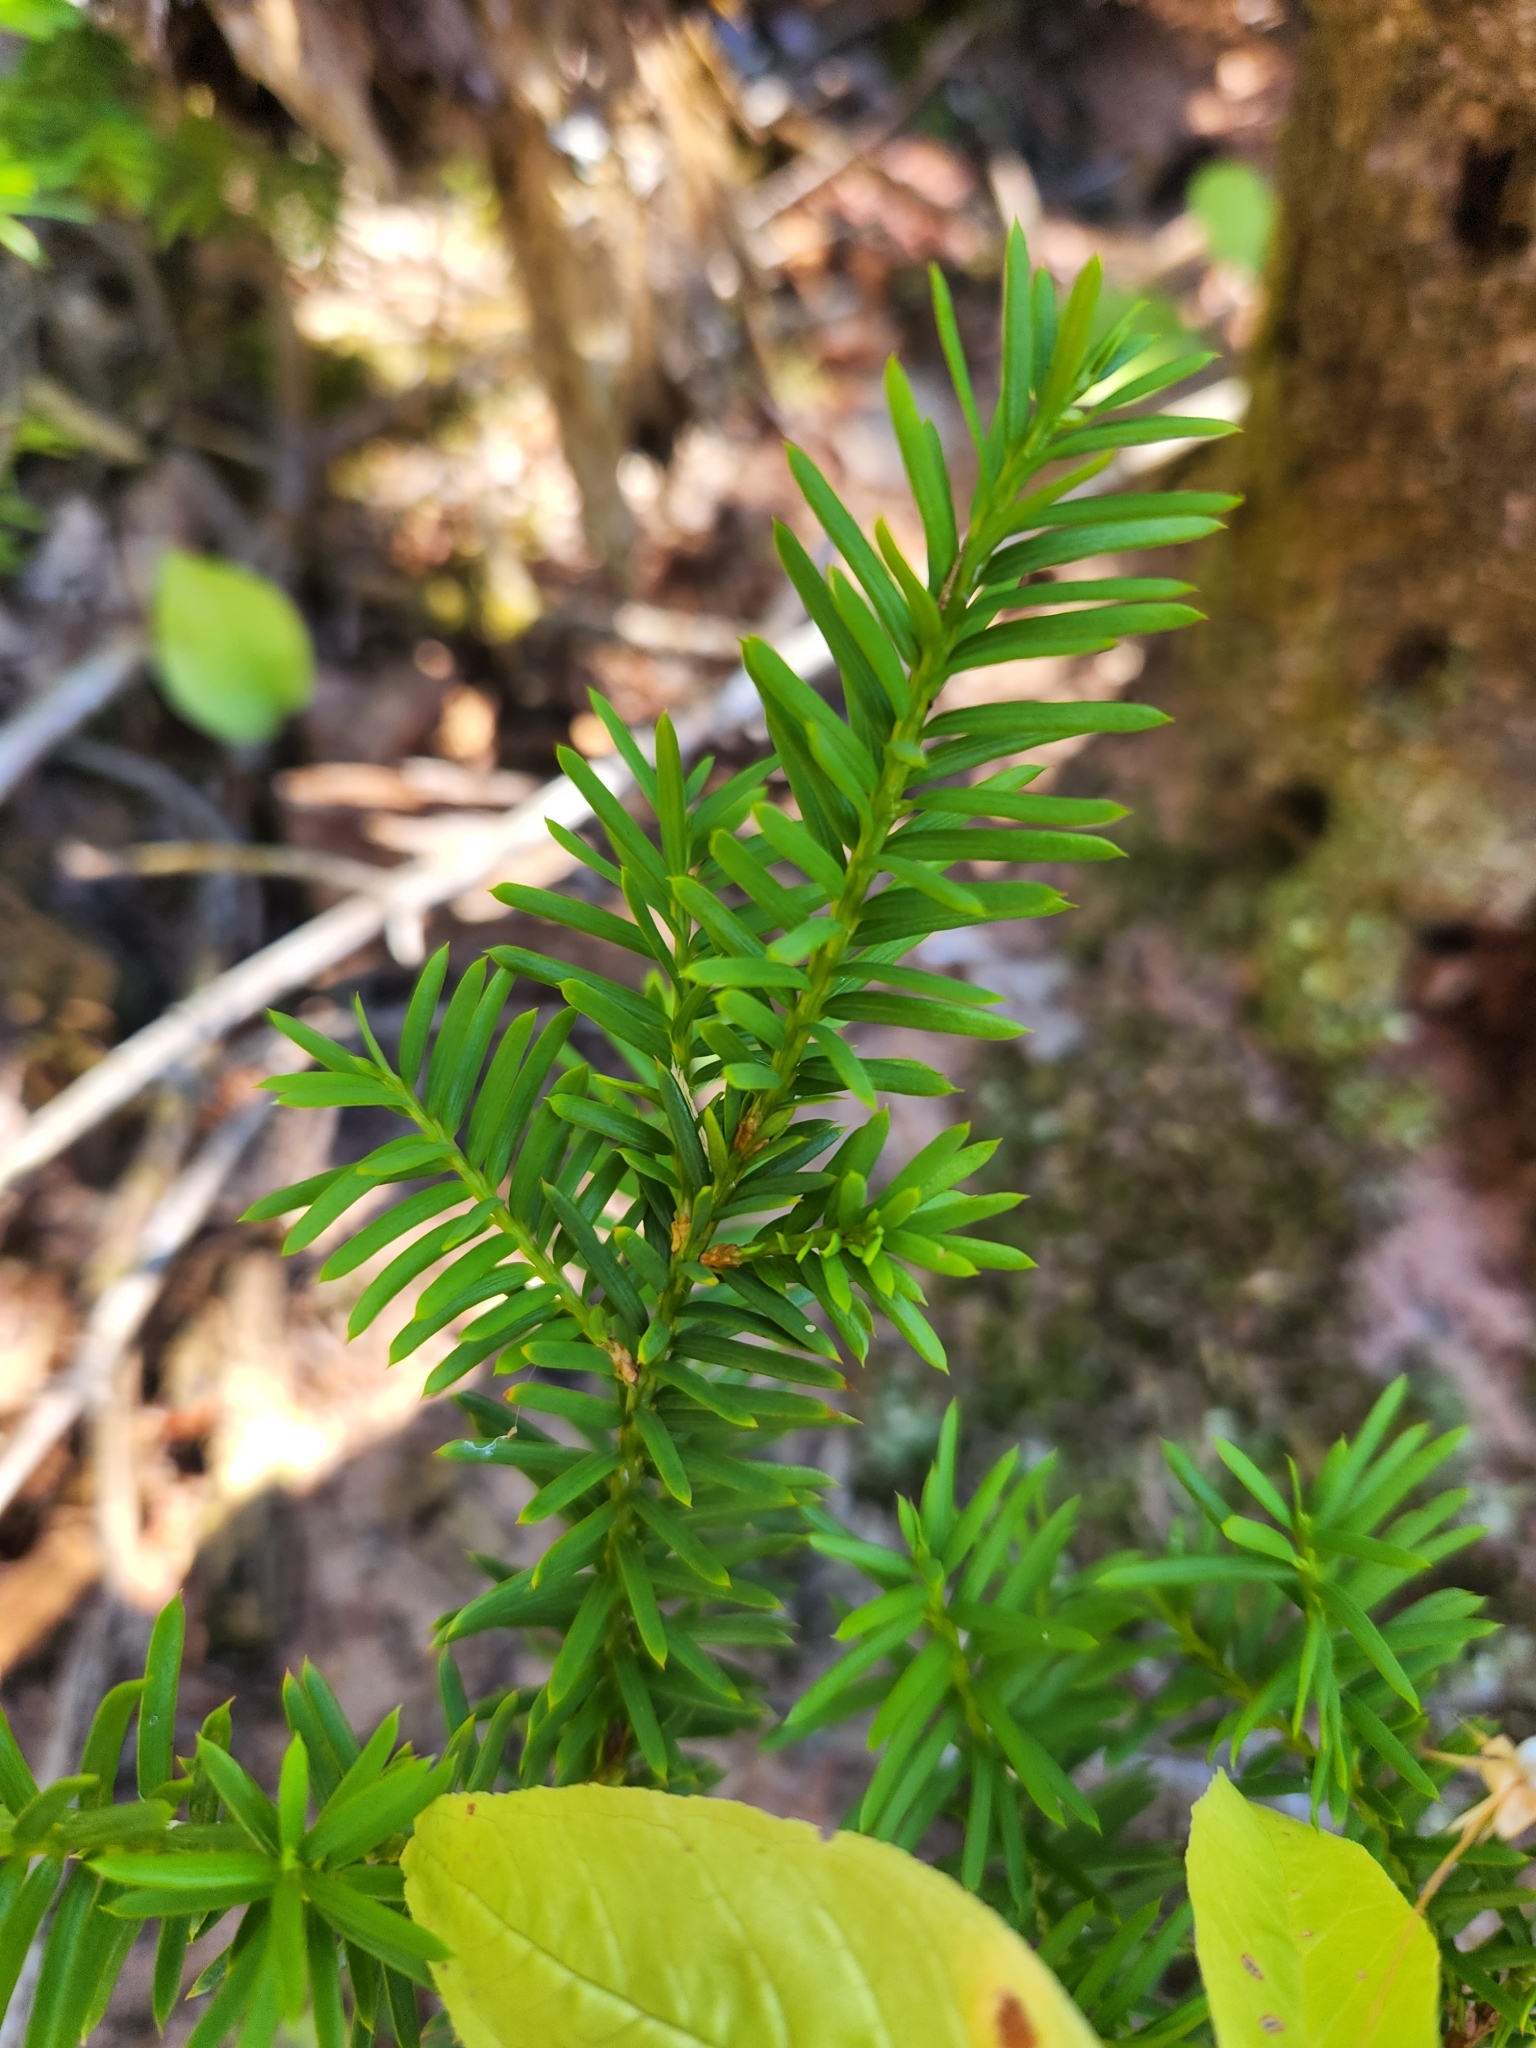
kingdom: Plantae
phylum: Tracheophyta
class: Pinopsida
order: Pinales
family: Taxaceae
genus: Taxus
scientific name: Taxus canadensis
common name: American yew
